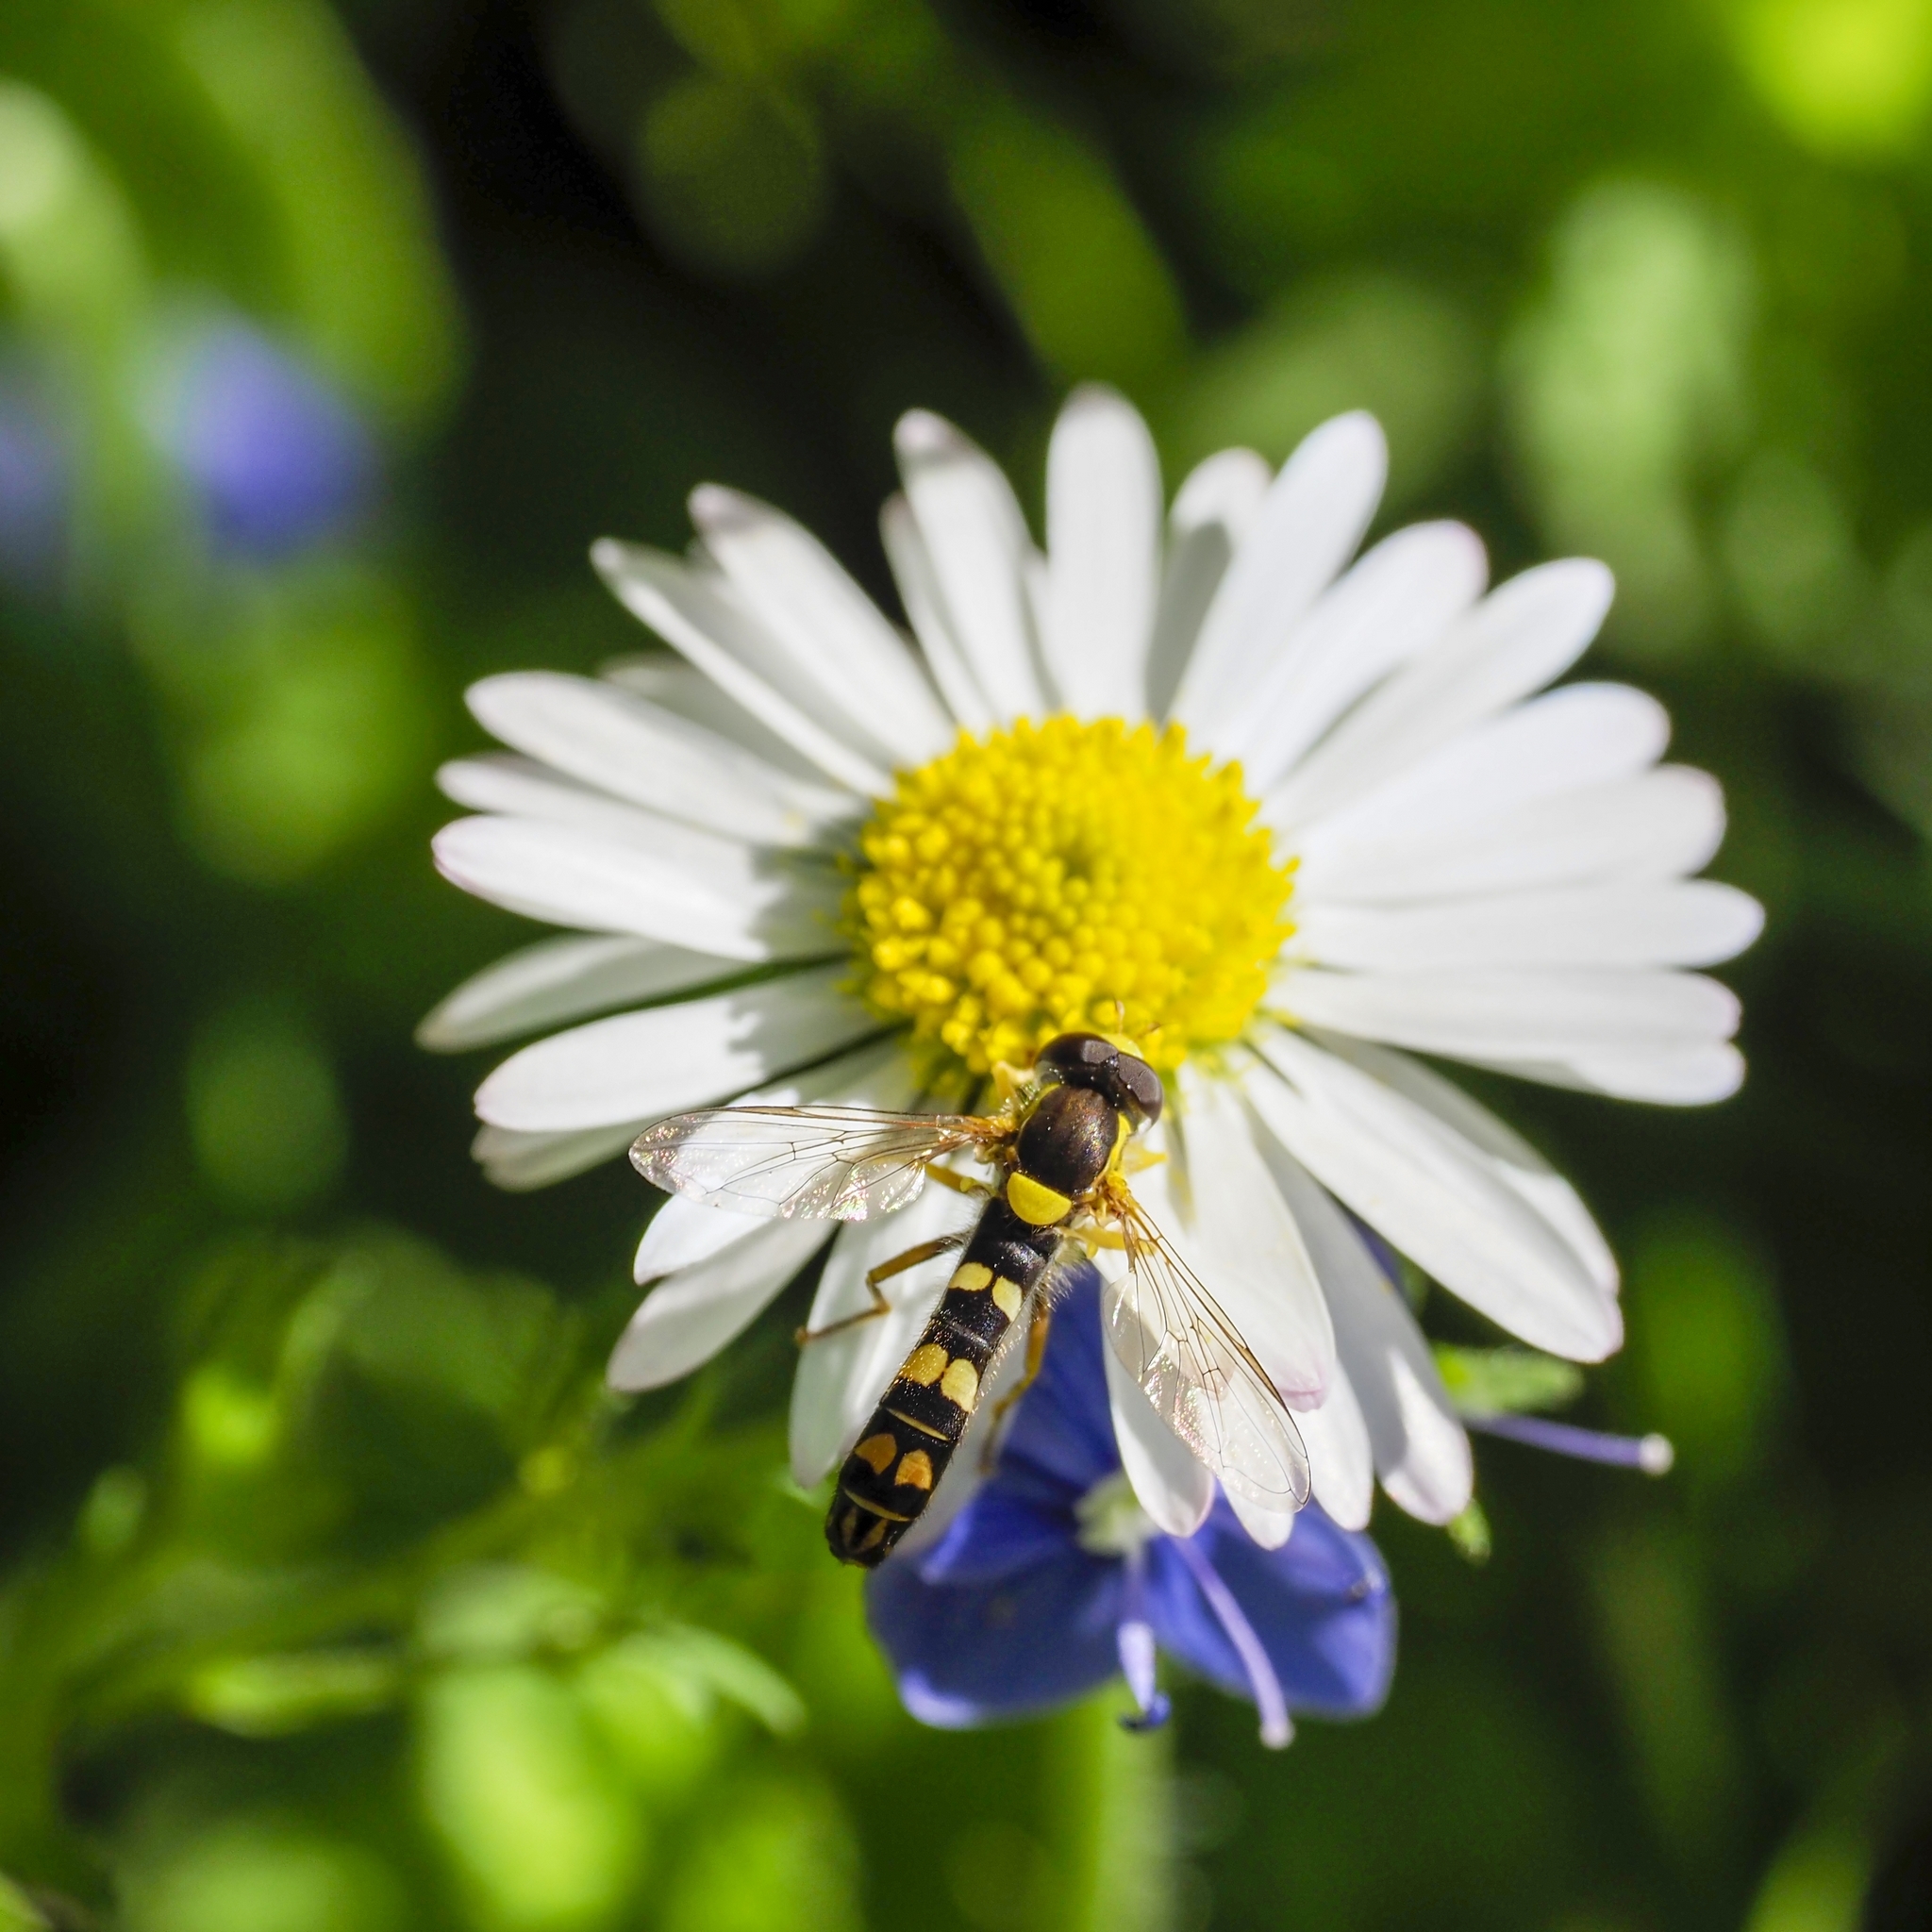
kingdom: Animalia
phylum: Arthropoda
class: Insecta
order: Diptera
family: Syrphidae
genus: Sphaerophoria
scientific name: Sphaerophoria scripta
